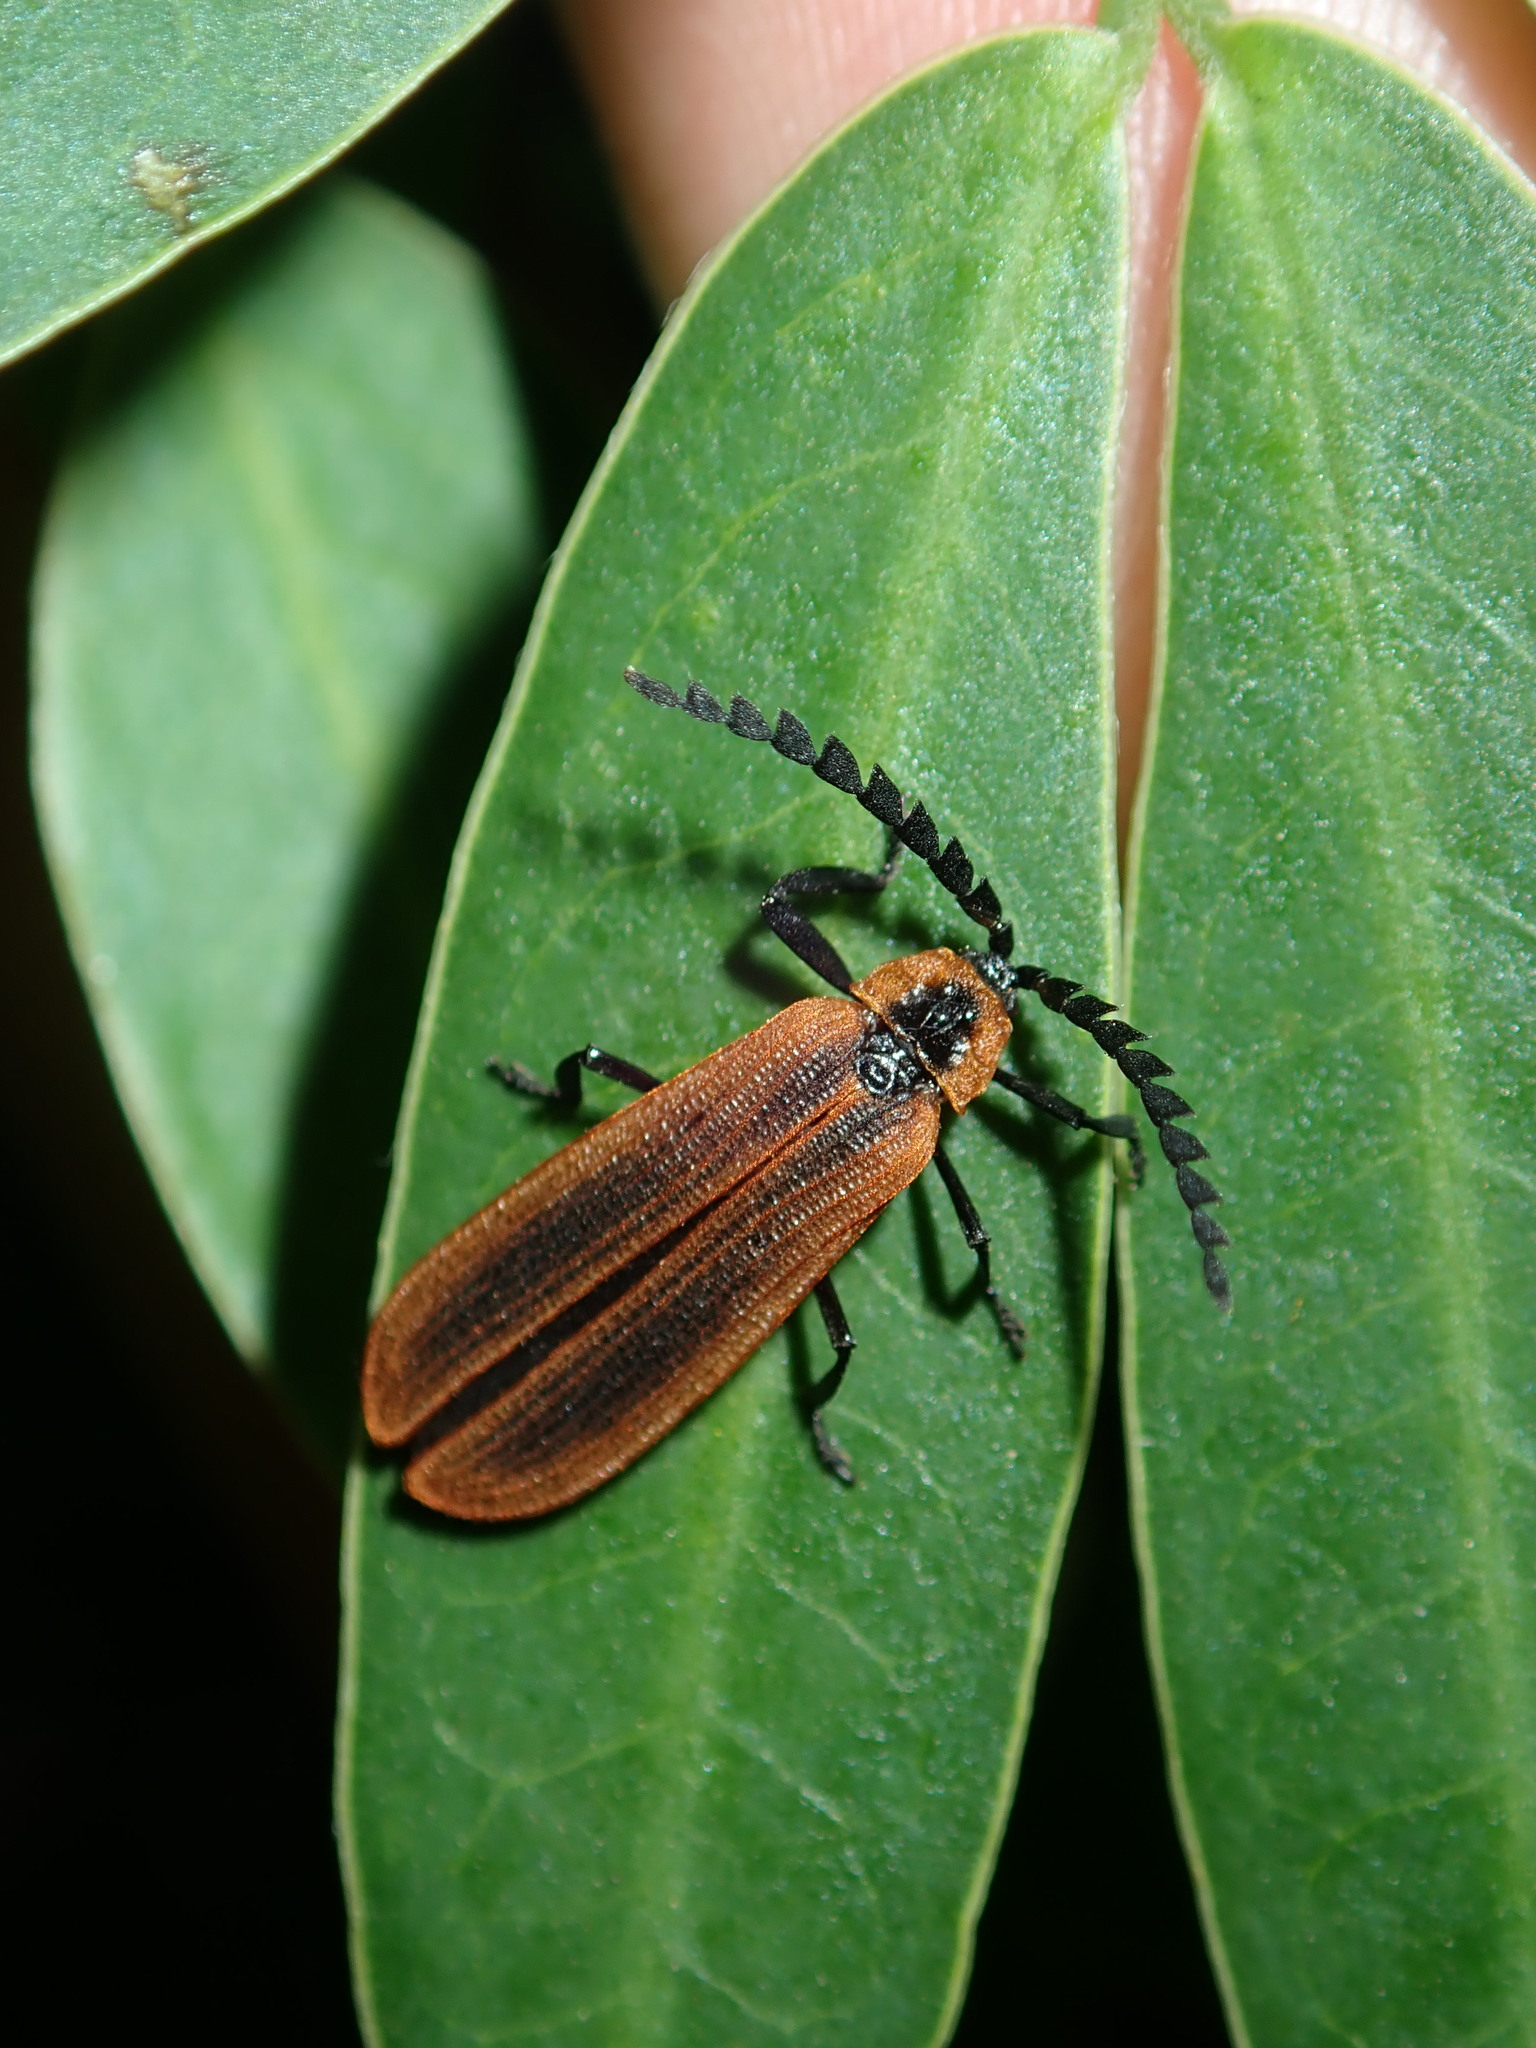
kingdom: Animalia
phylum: Arthropoda
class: Insecta
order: Coleoptera
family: Lycidae
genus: Trichalus
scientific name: Trichalus
